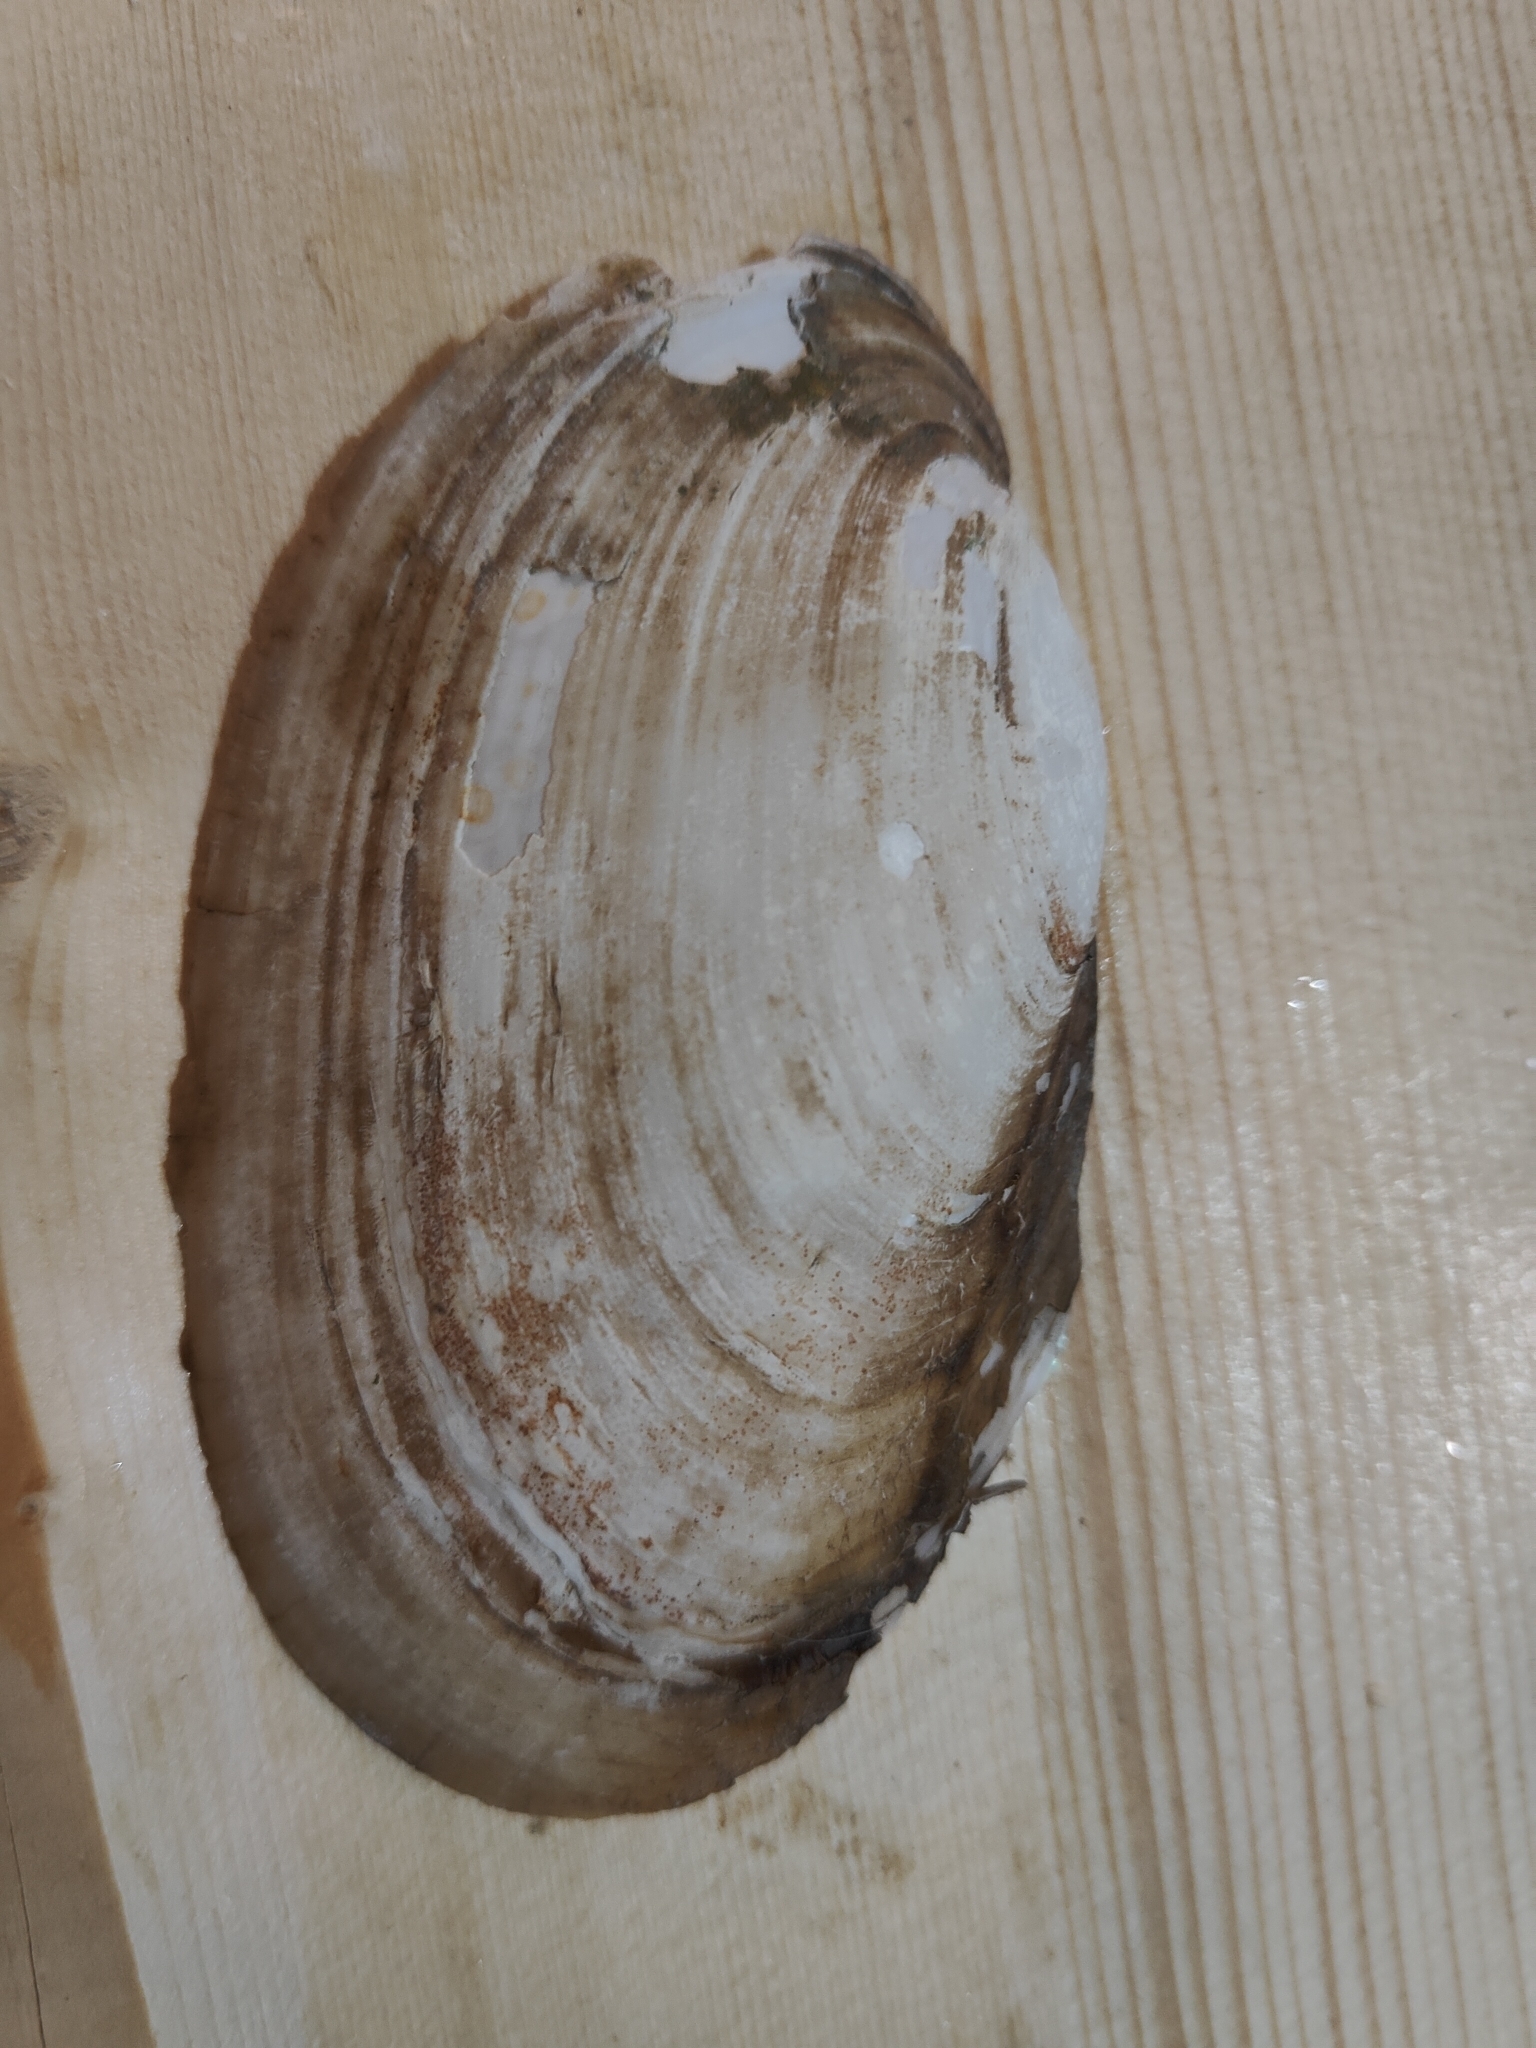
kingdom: Animalia
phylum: Mollusca
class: Bivalvia
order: Unionida
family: Unionidae
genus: Potamilus
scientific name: Potamilus fragilis
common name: Fragile papershell
